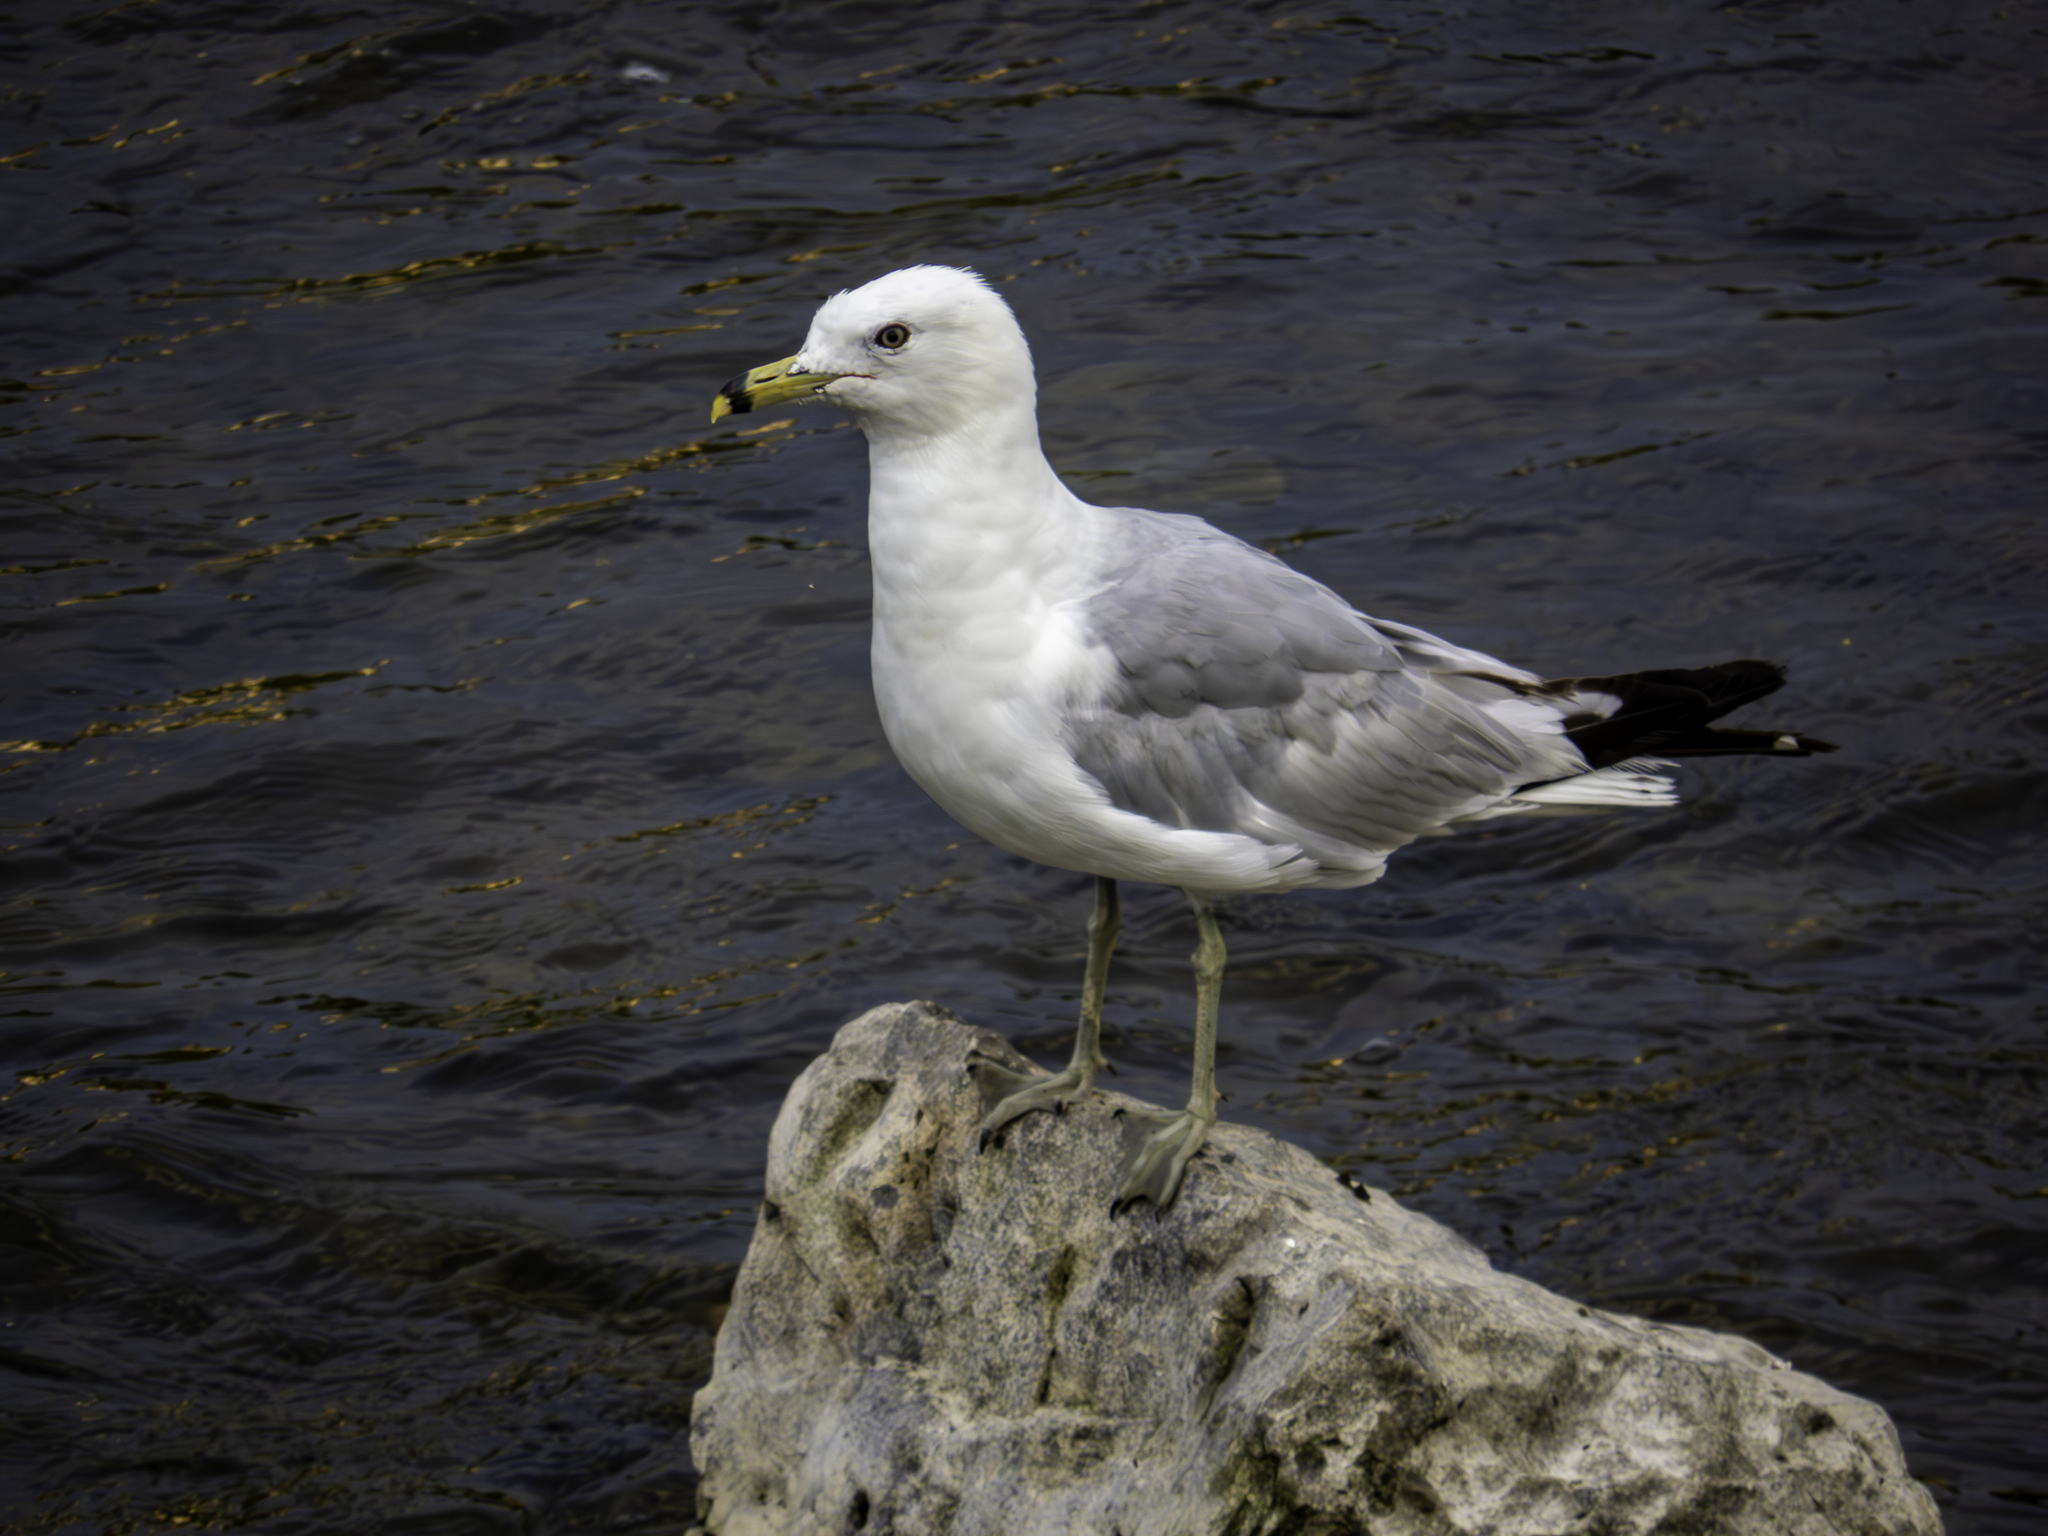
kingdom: Animalia
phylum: Chordata
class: Aves
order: Charadriiformes
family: Laridae
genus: Larus
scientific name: Larus delawarensis
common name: Ring-billed gull
